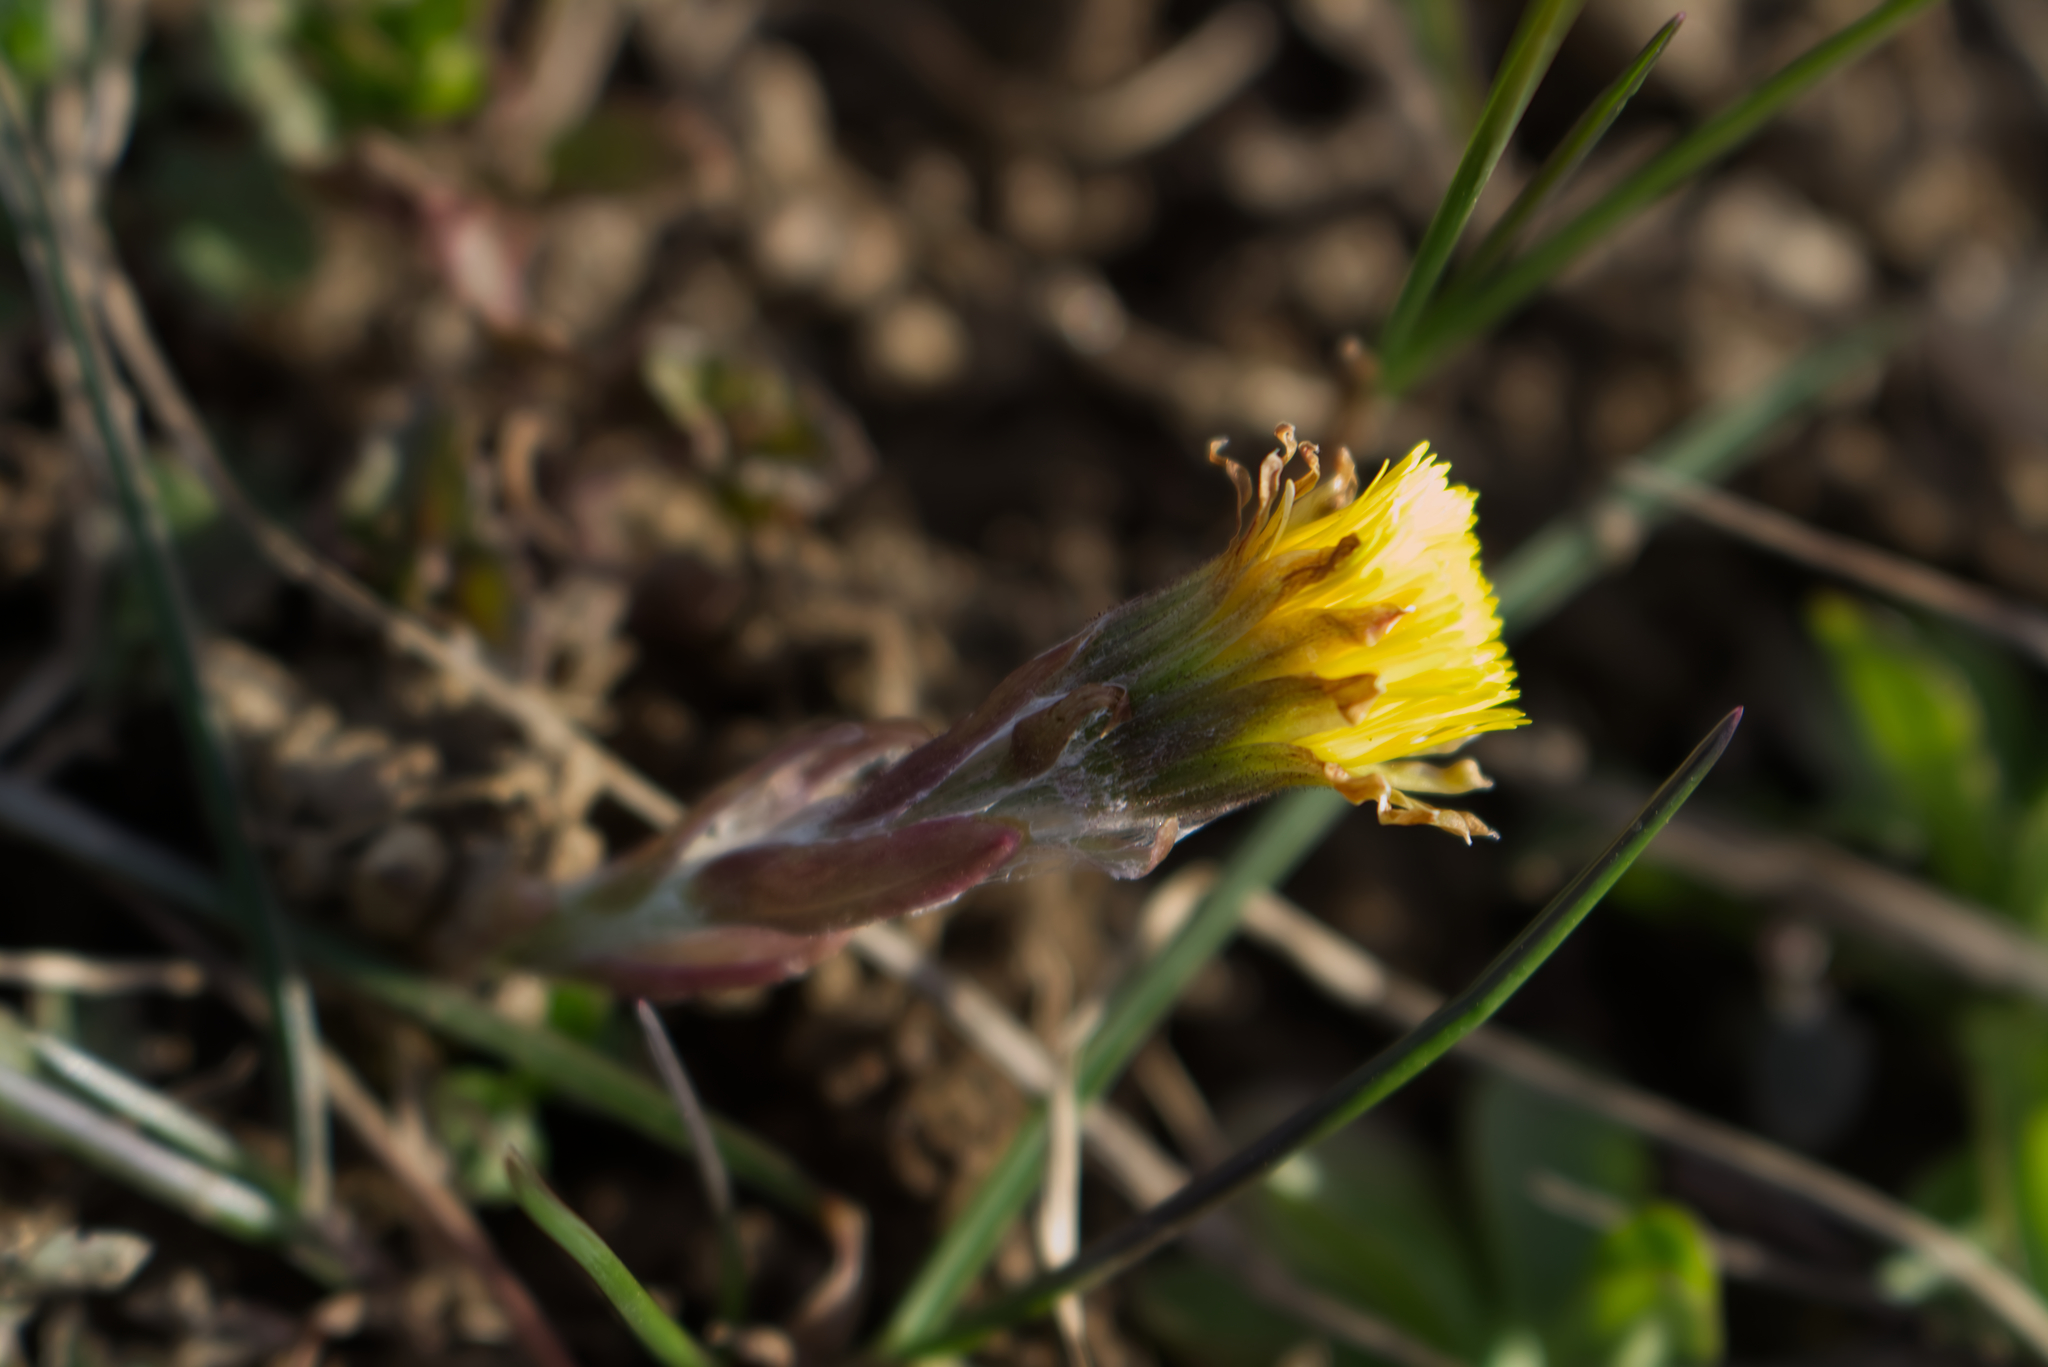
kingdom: Plantae
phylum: Tracheophyta
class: Magnoliopsida
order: Asterales
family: Asteraceae
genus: Tussilago
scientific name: Tussilago farfara
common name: Coltsfoot
